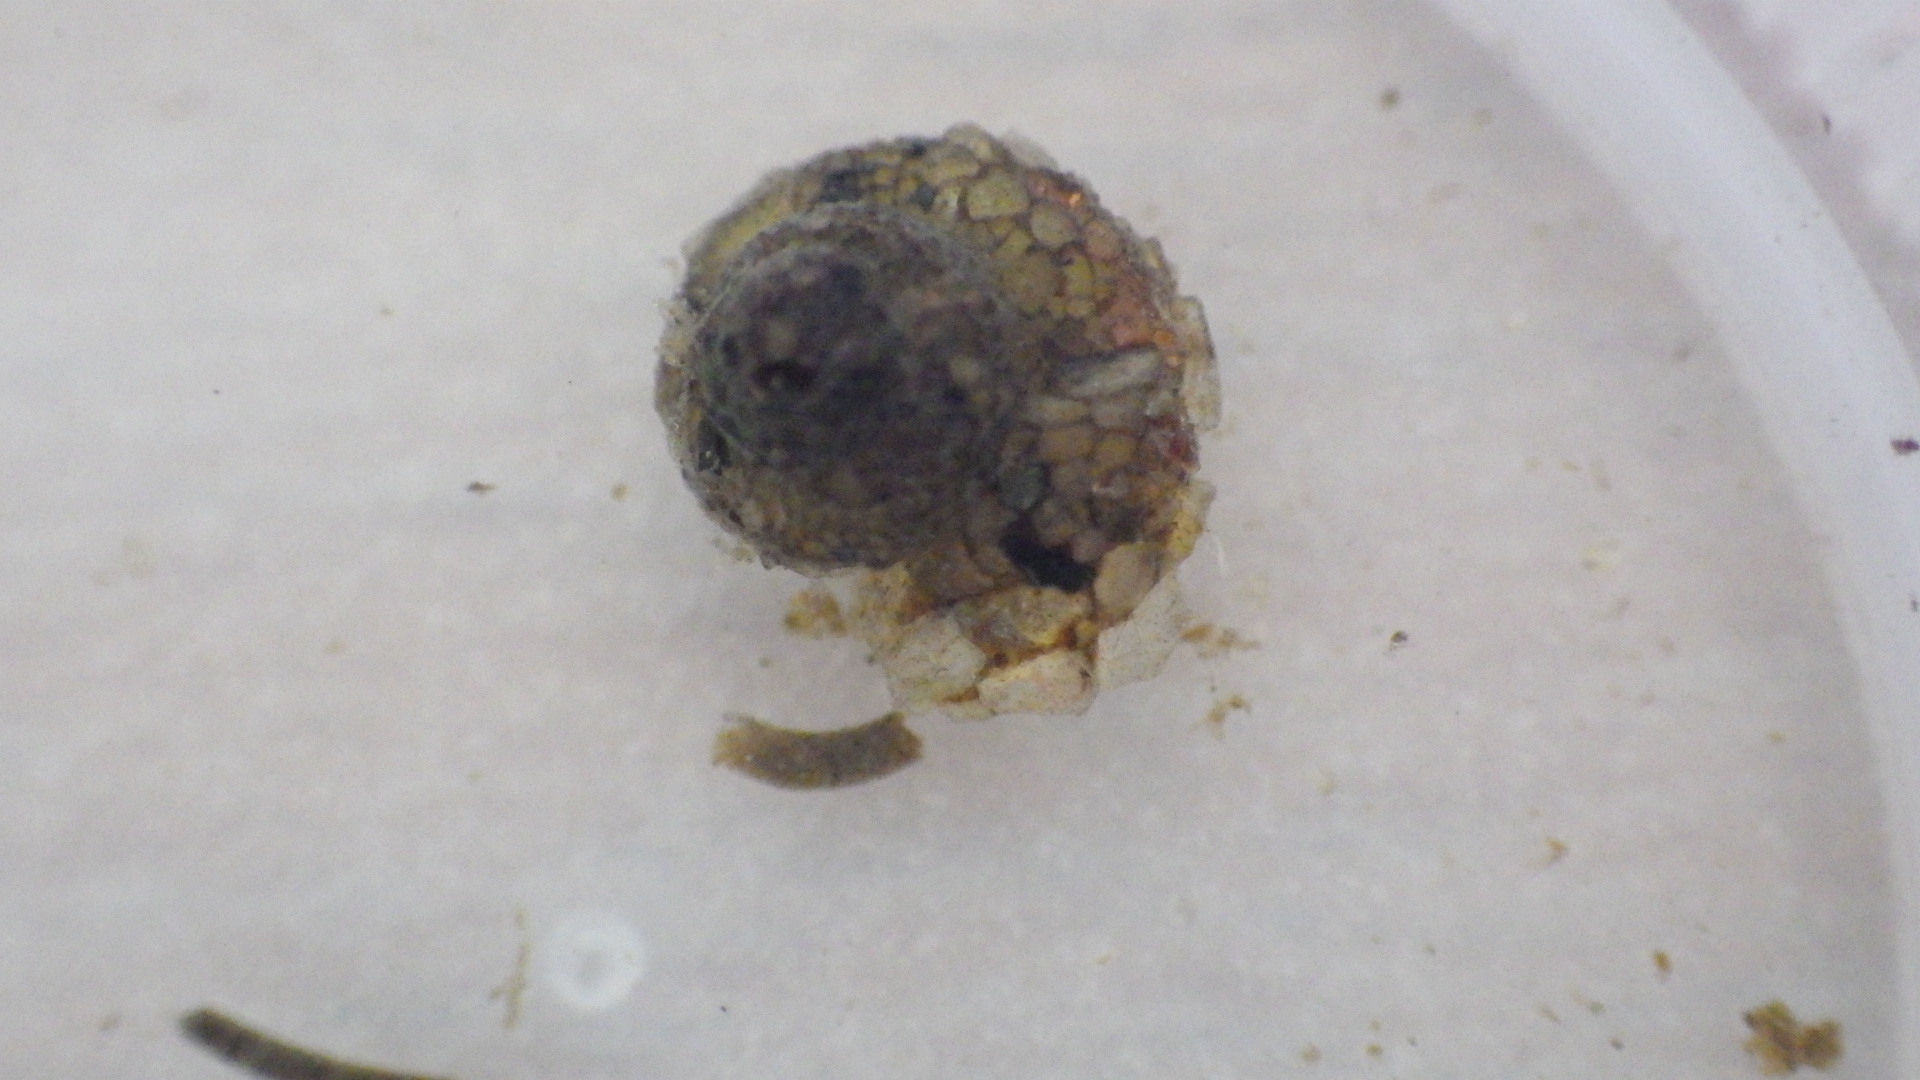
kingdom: Animalia
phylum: Arthropoda
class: Insecta
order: Trichoptera
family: Helicopsychidae
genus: Helicopsyche
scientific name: Helicopsyche borealis
